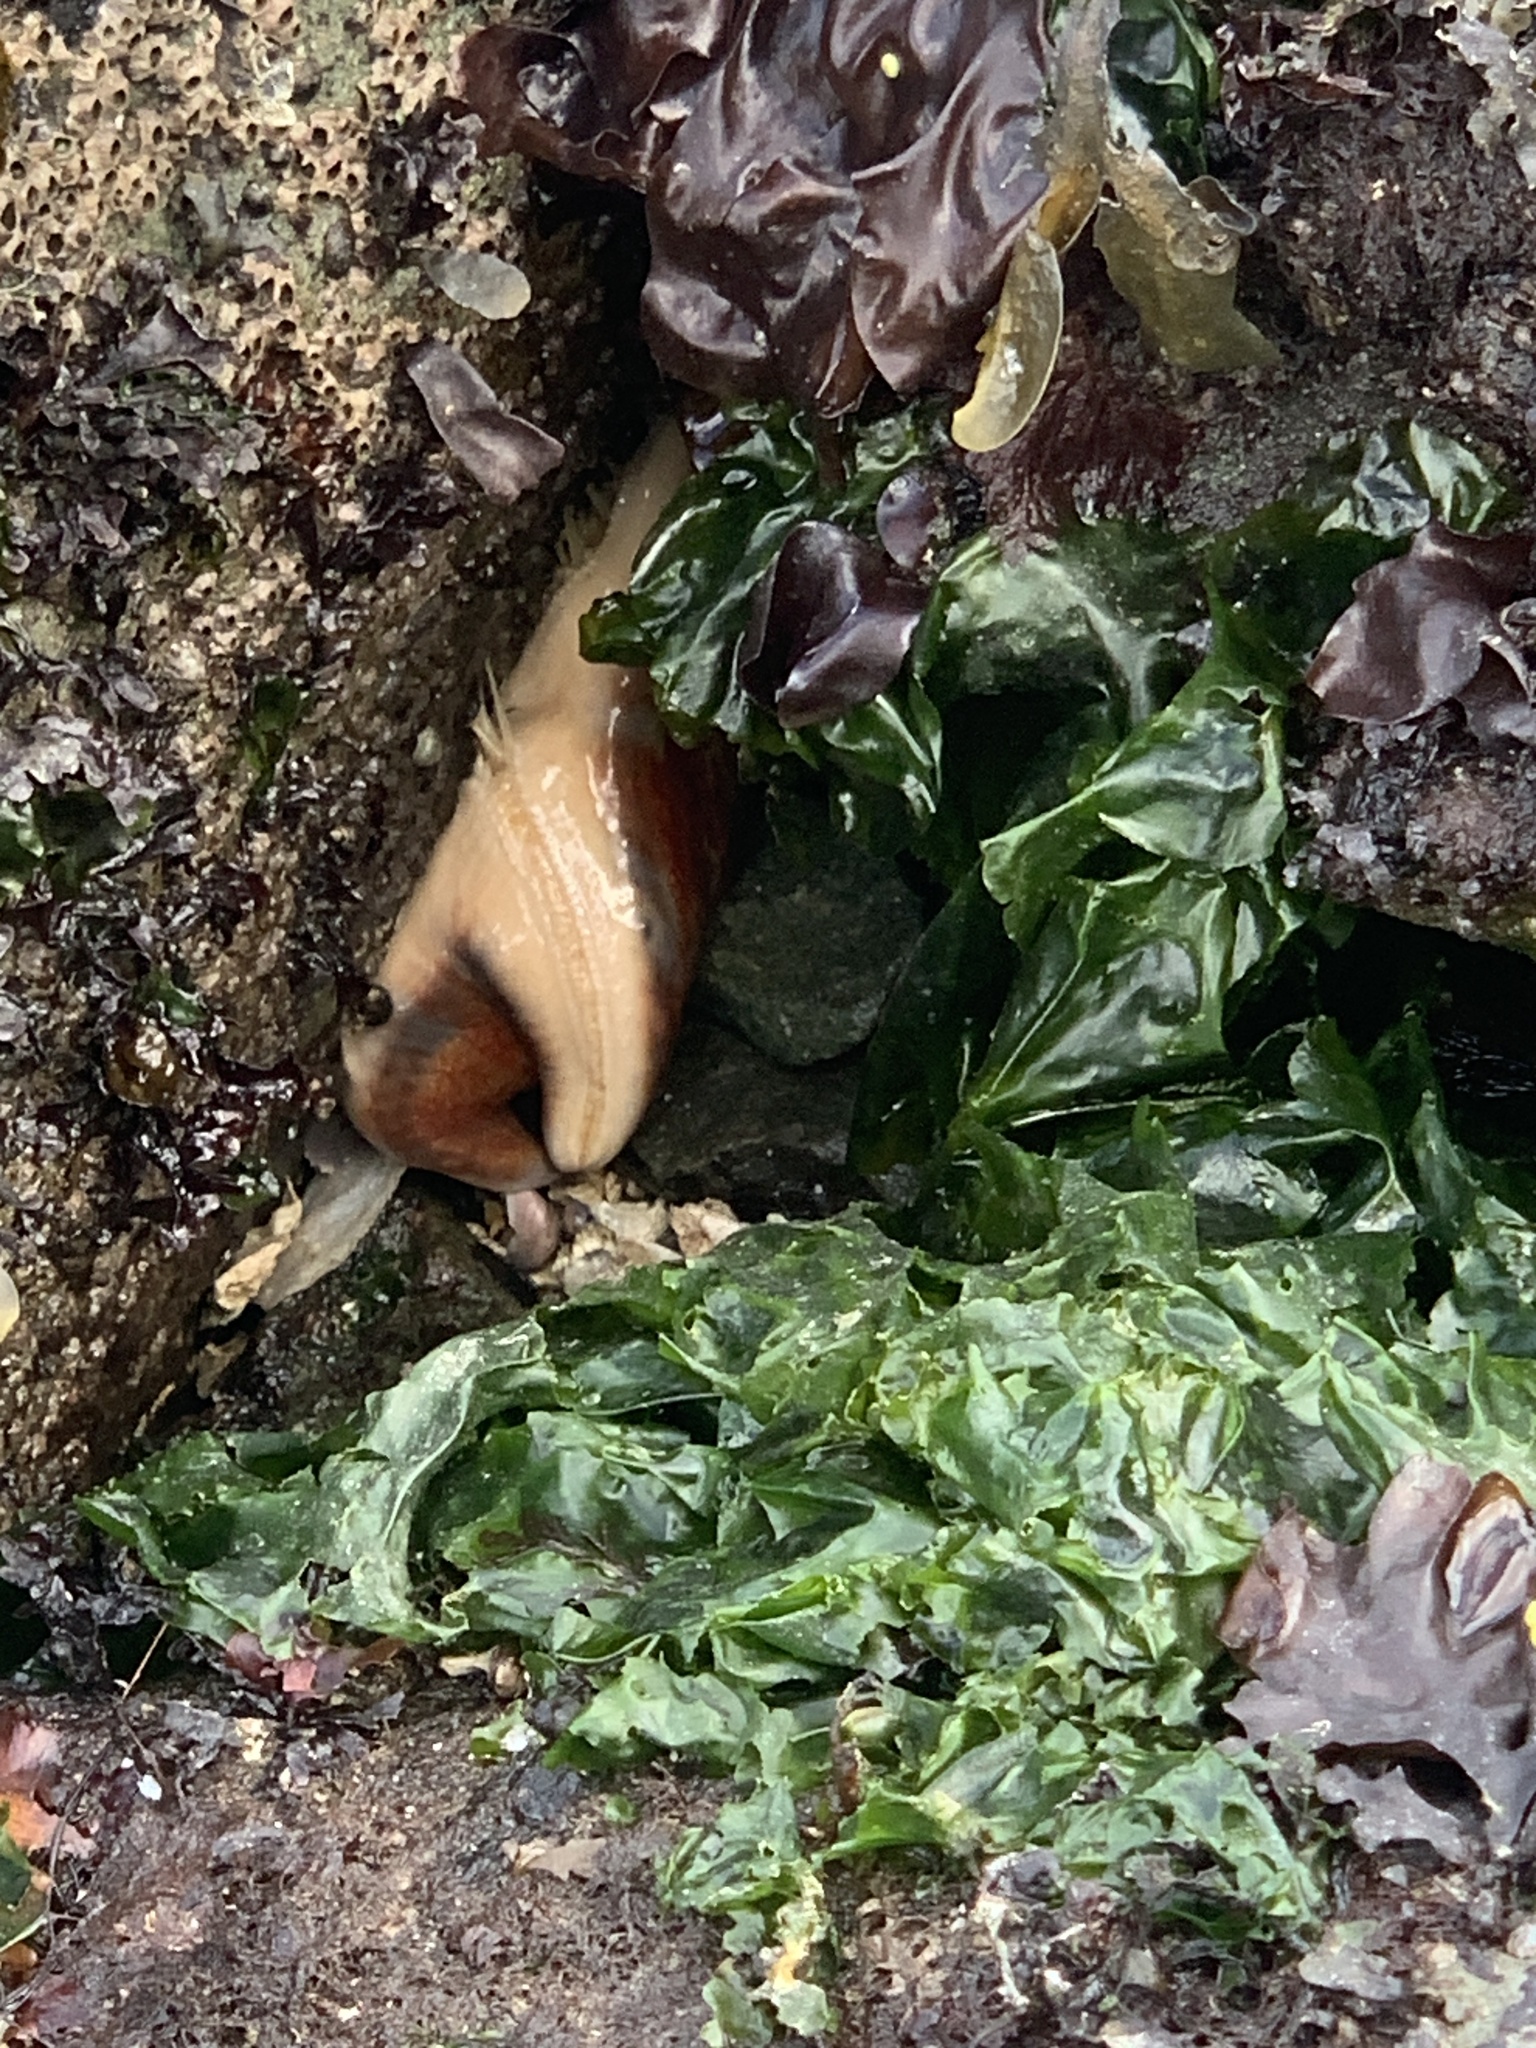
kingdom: Animalia
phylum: Echinodermata
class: Asteroidea
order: Valvatida
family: Asteropseidae
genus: Dermasterias
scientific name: Dermasterias imbricata
